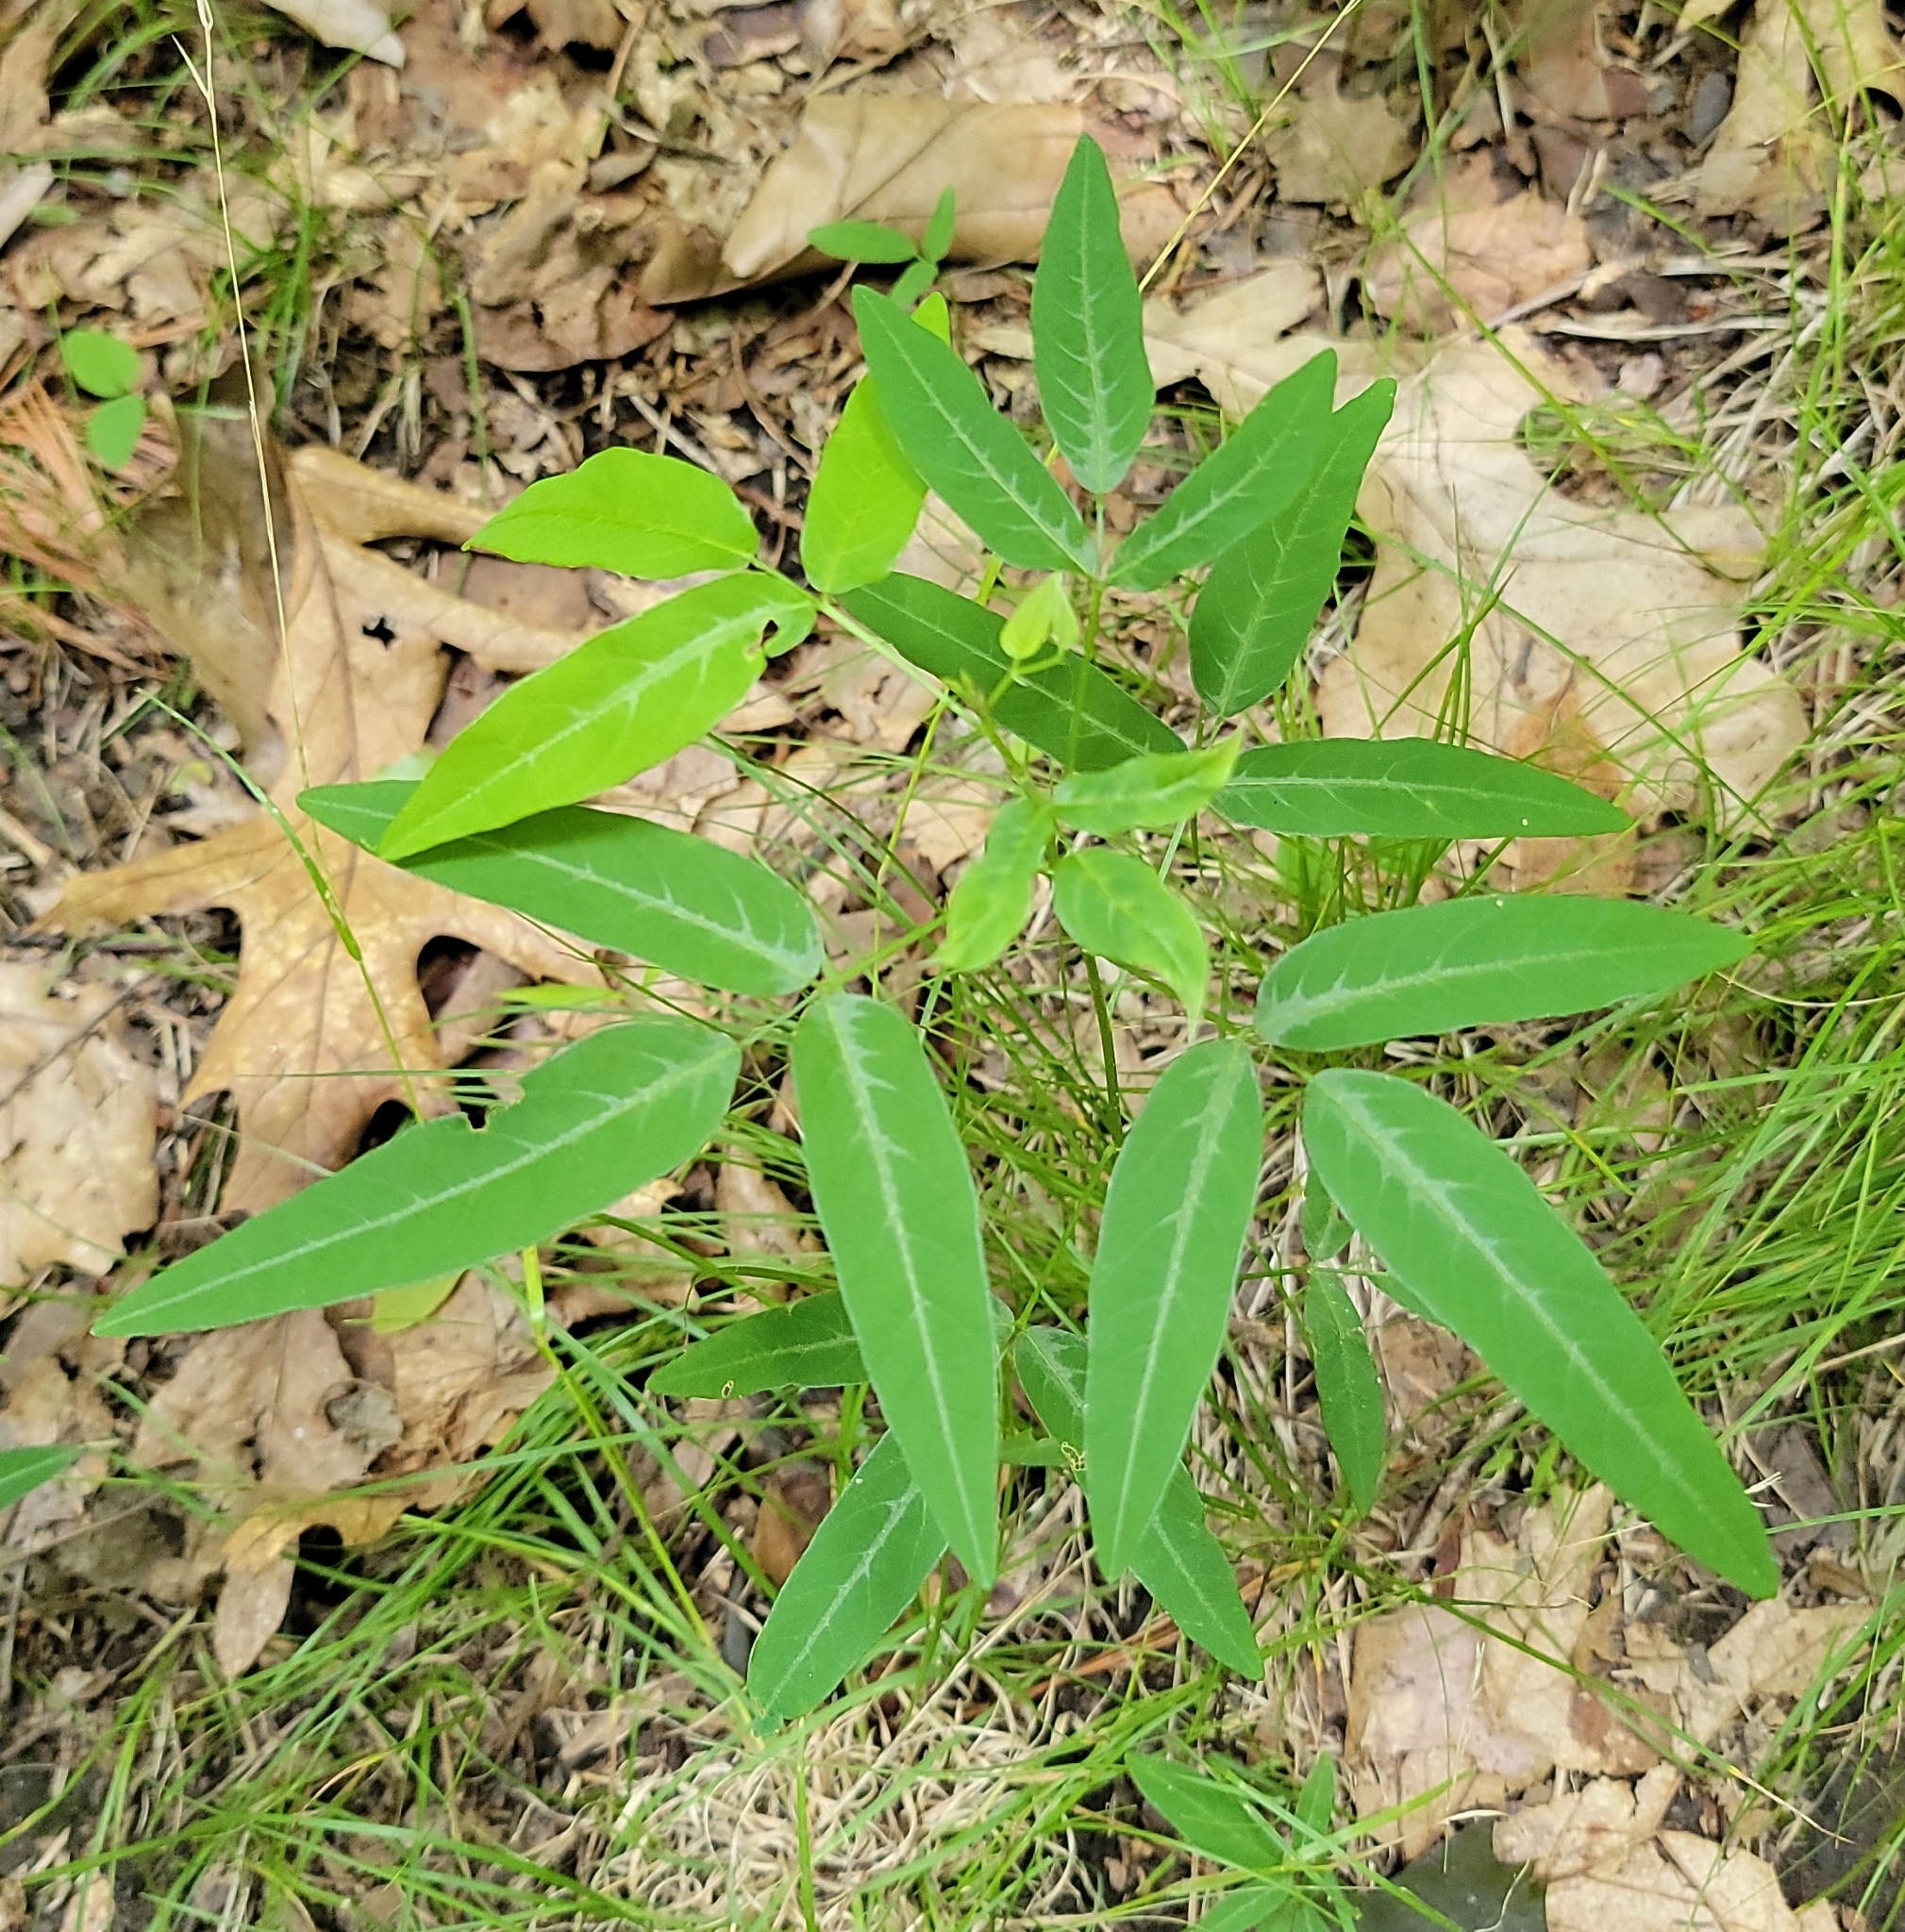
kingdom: Plantae
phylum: Tracheophyta
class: Magnoliopsida
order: Fabales
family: Fabaceae
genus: Desmodium
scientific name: Desmodium paniculatum
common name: Panicled tick-clover
